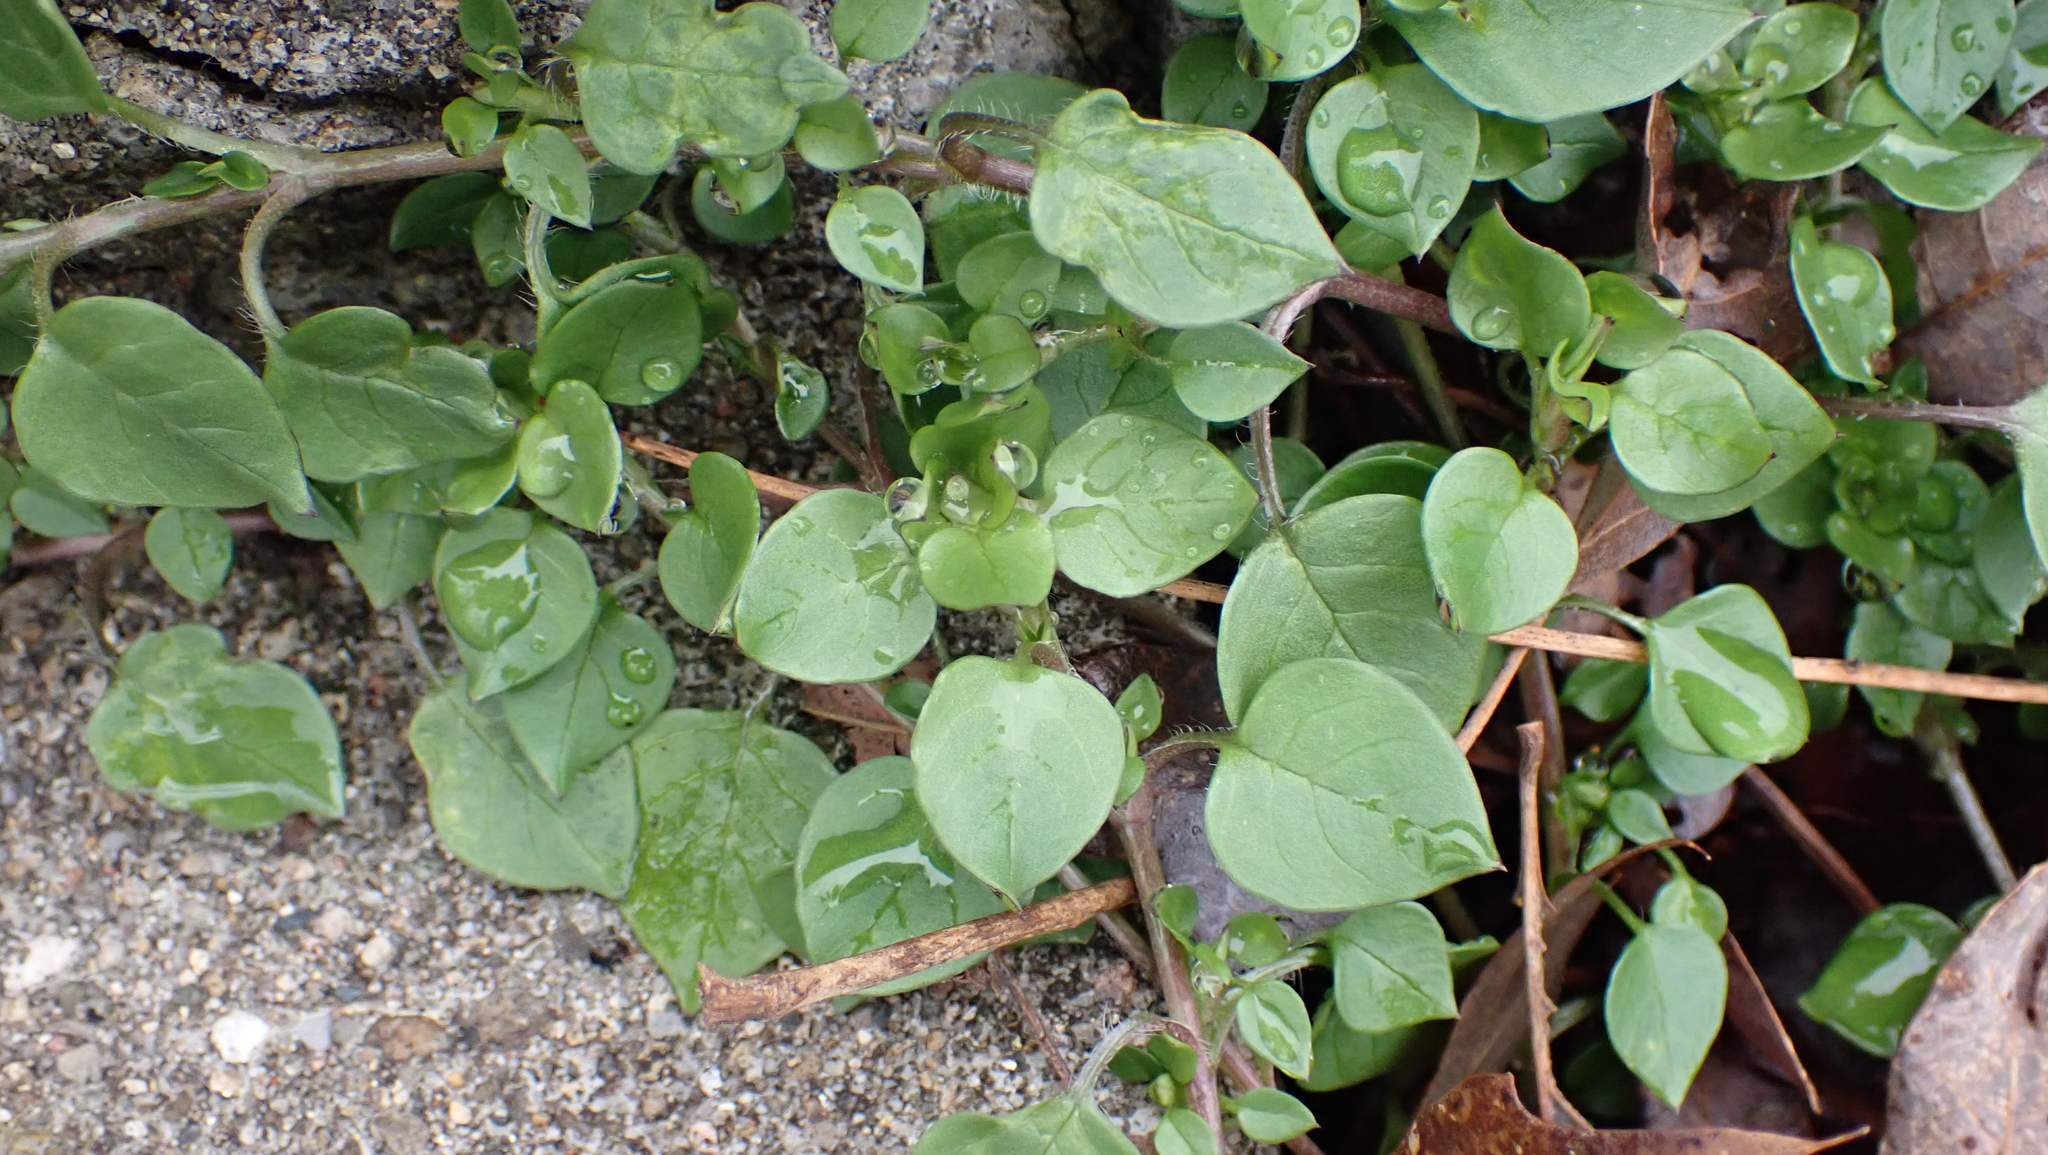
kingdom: Plantae
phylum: Tracheophyta
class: Magnoliopsida
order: Caryophyllales
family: Caryophyllaceae
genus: Stellaria
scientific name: Stellaria media
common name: Common chickweed
